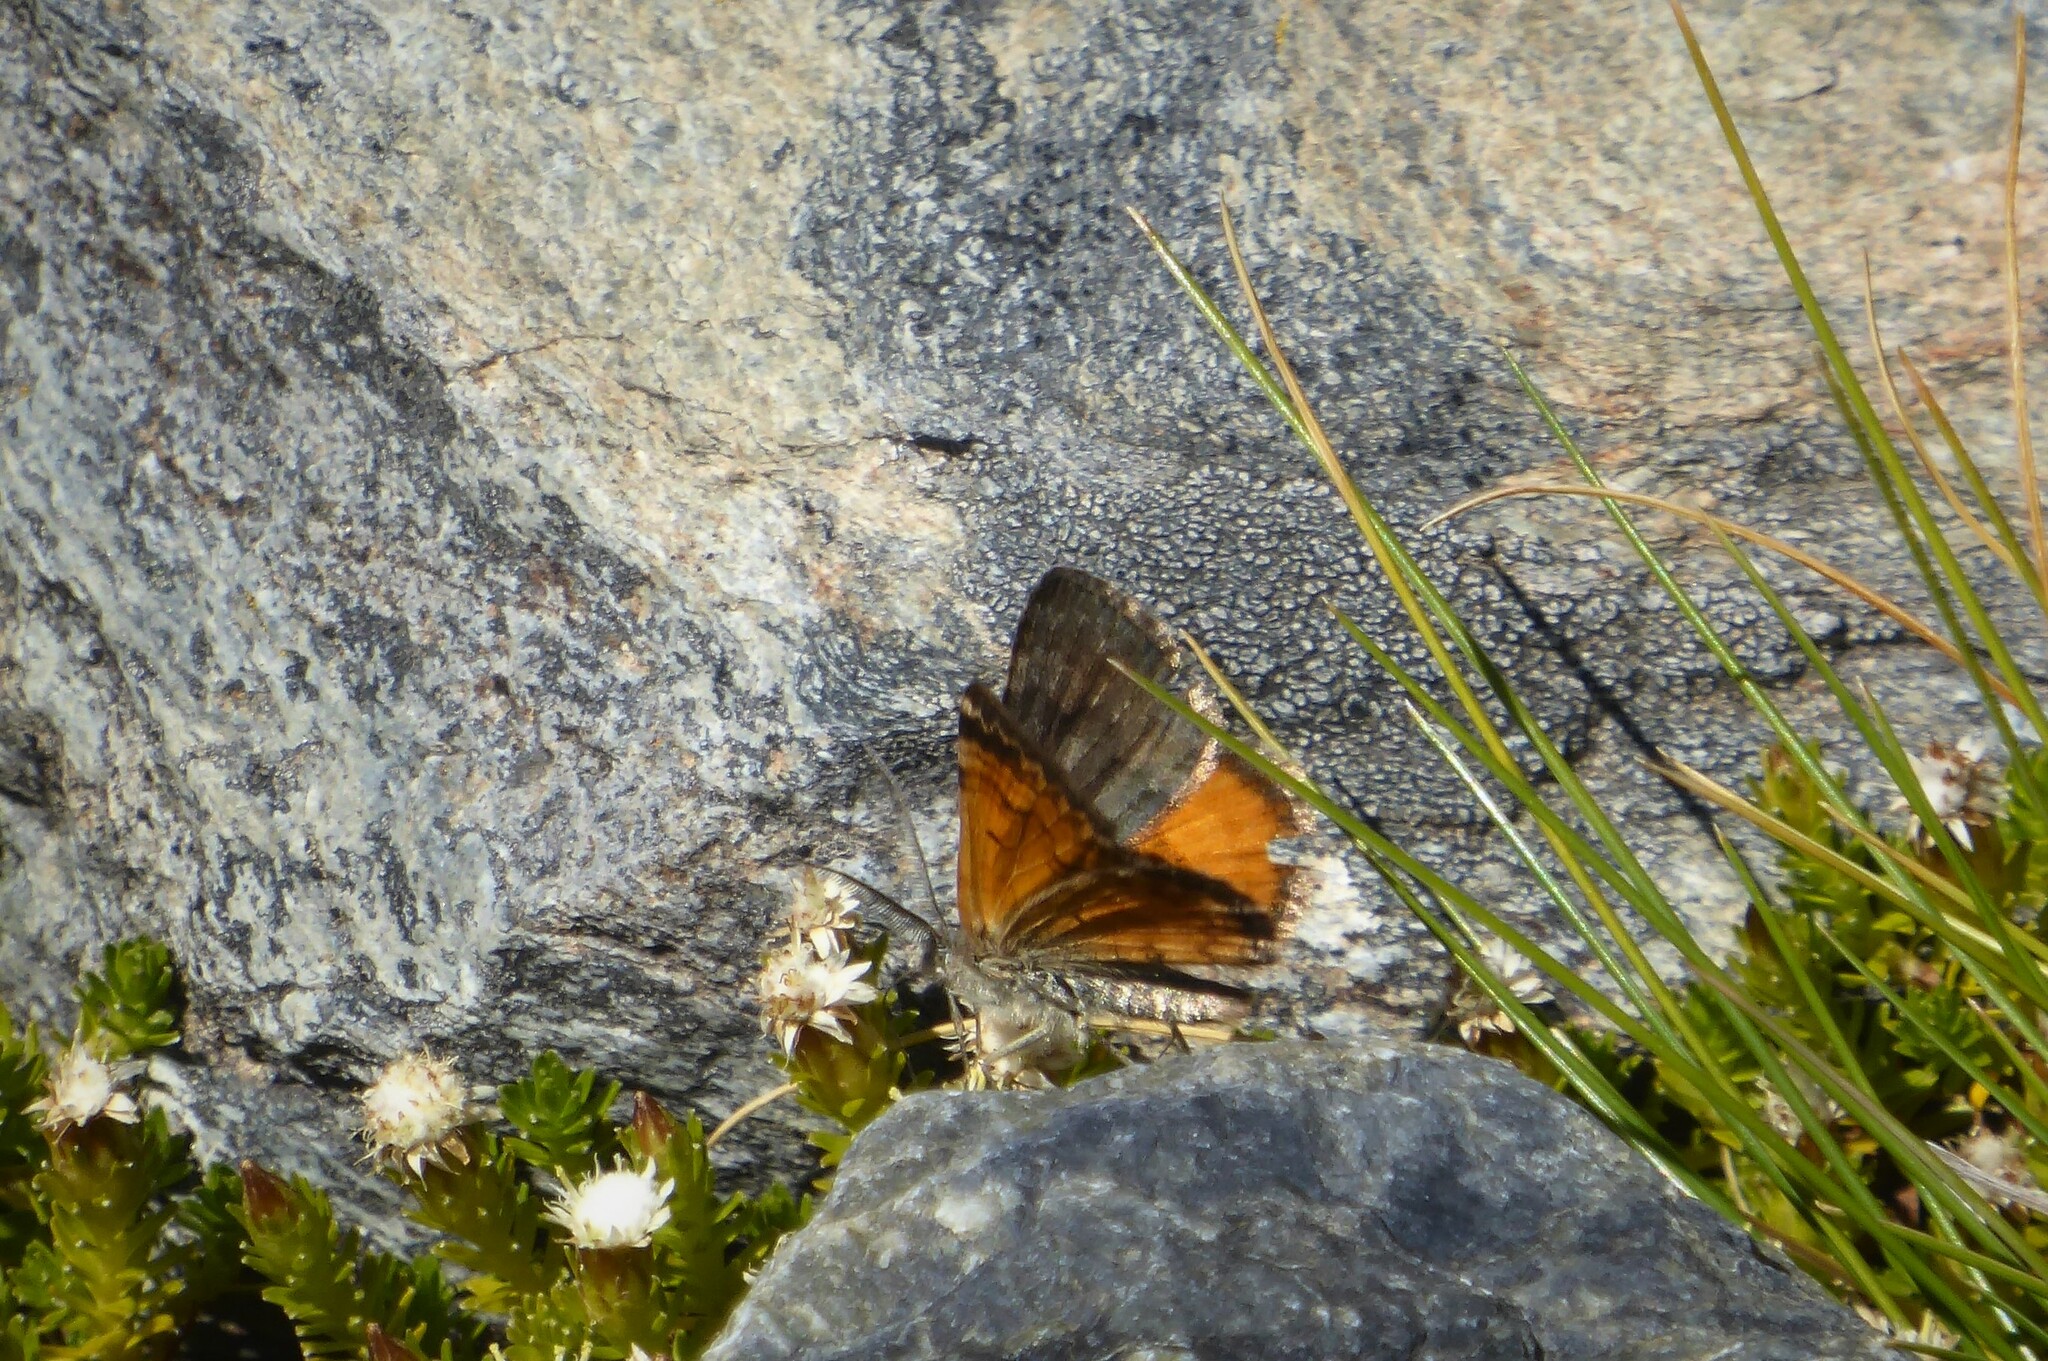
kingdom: Animalia
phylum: Arthropoda
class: Insecta
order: Lepidoptera
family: Geometridae
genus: Paranotoreas
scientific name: Paranotoreas brephosata
